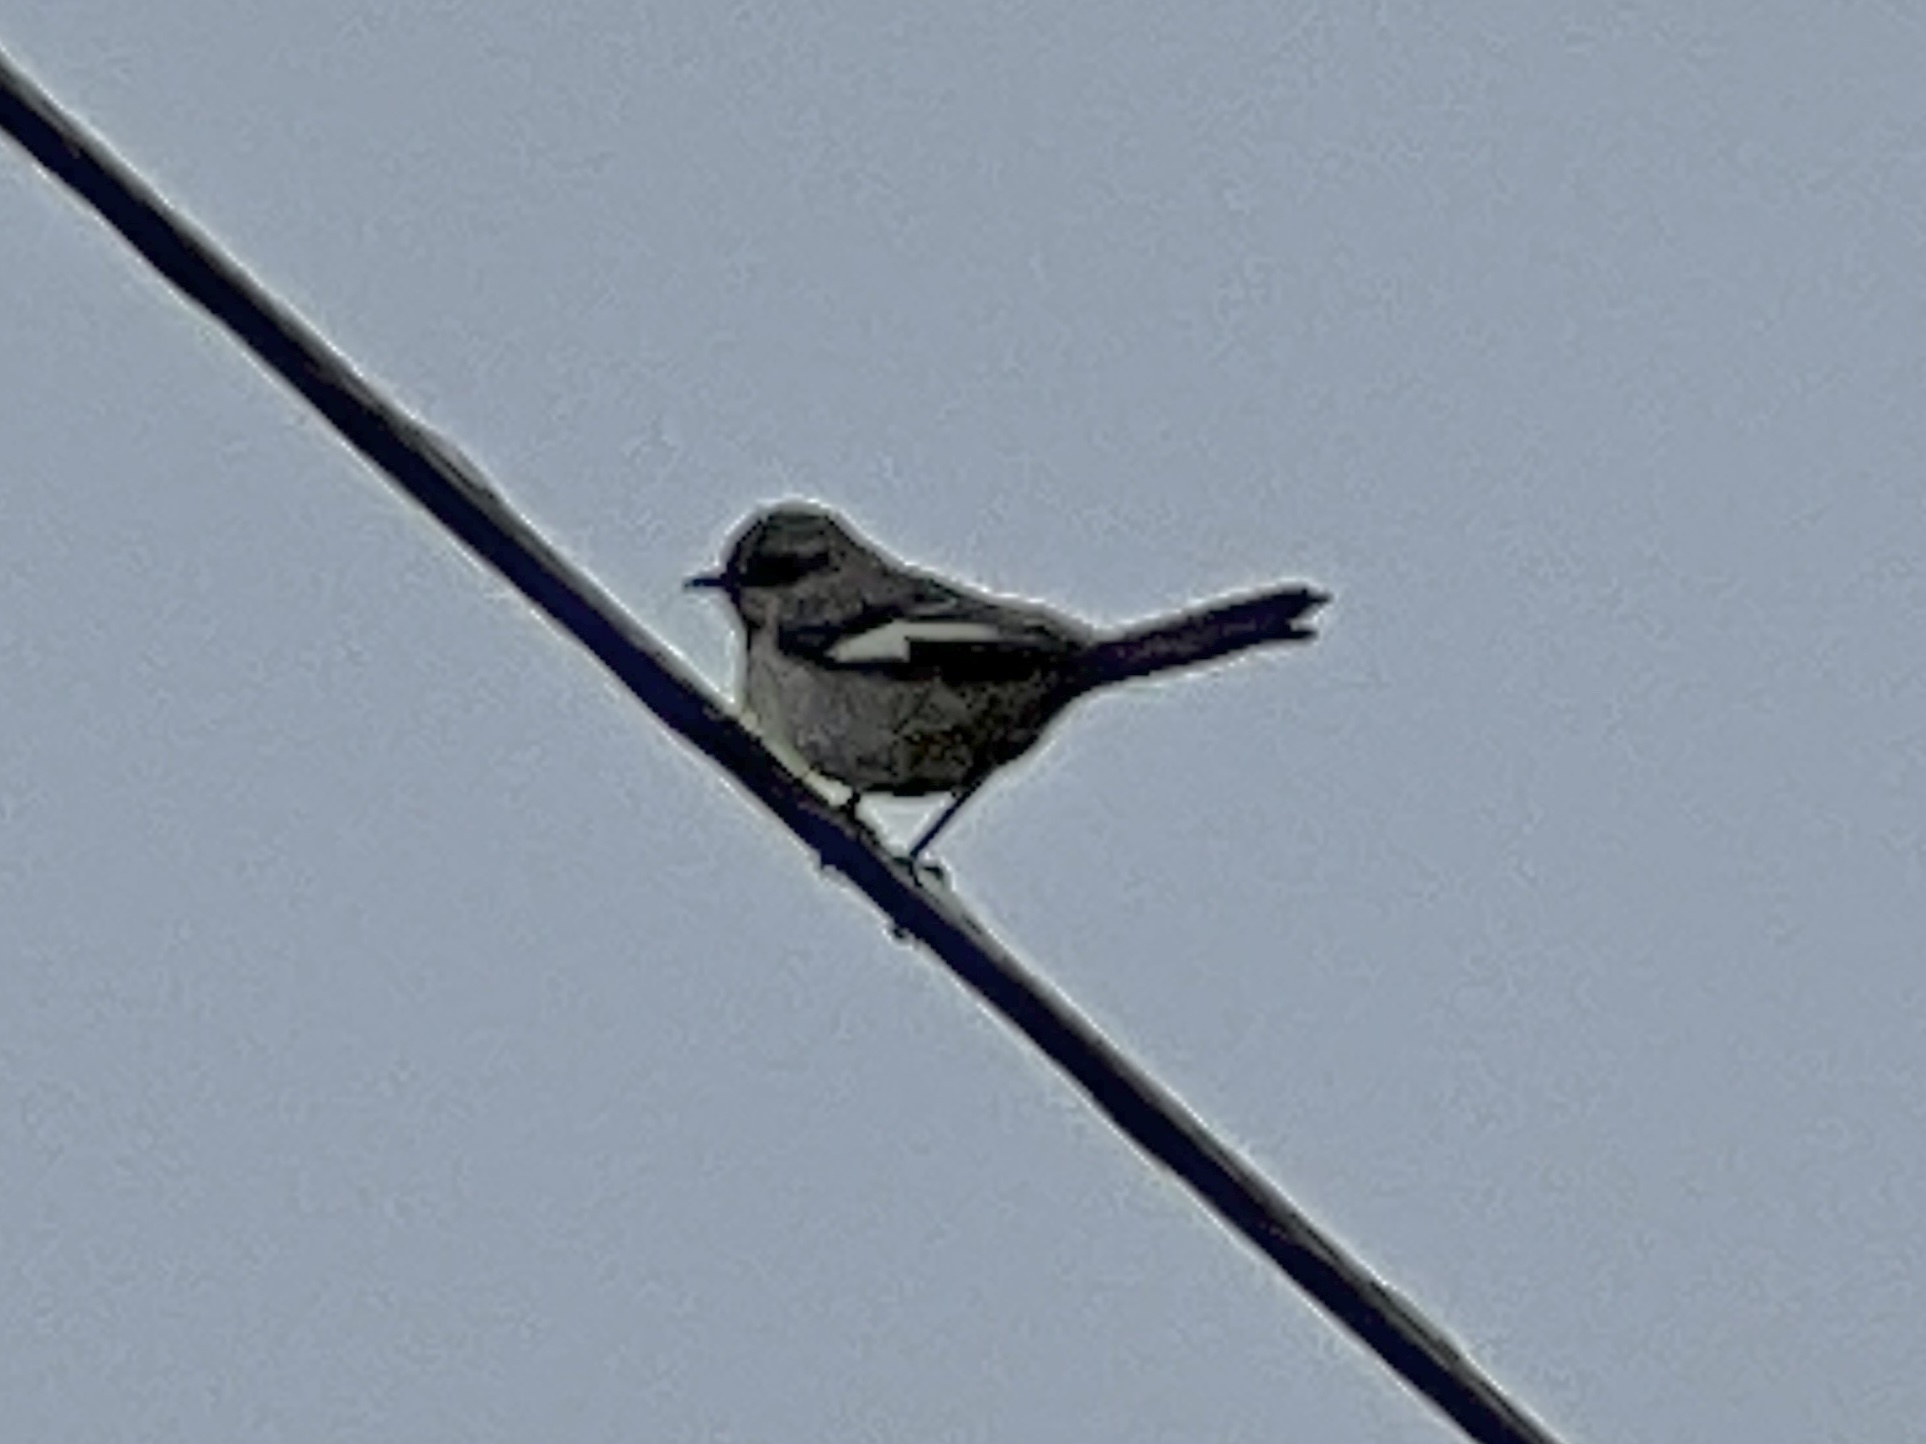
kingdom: Animalia
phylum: Chordata
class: Aves
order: Passeriformes
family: Mimidae
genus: Mimus
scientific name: Mimus polyglottos
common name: Northern mockingbird
